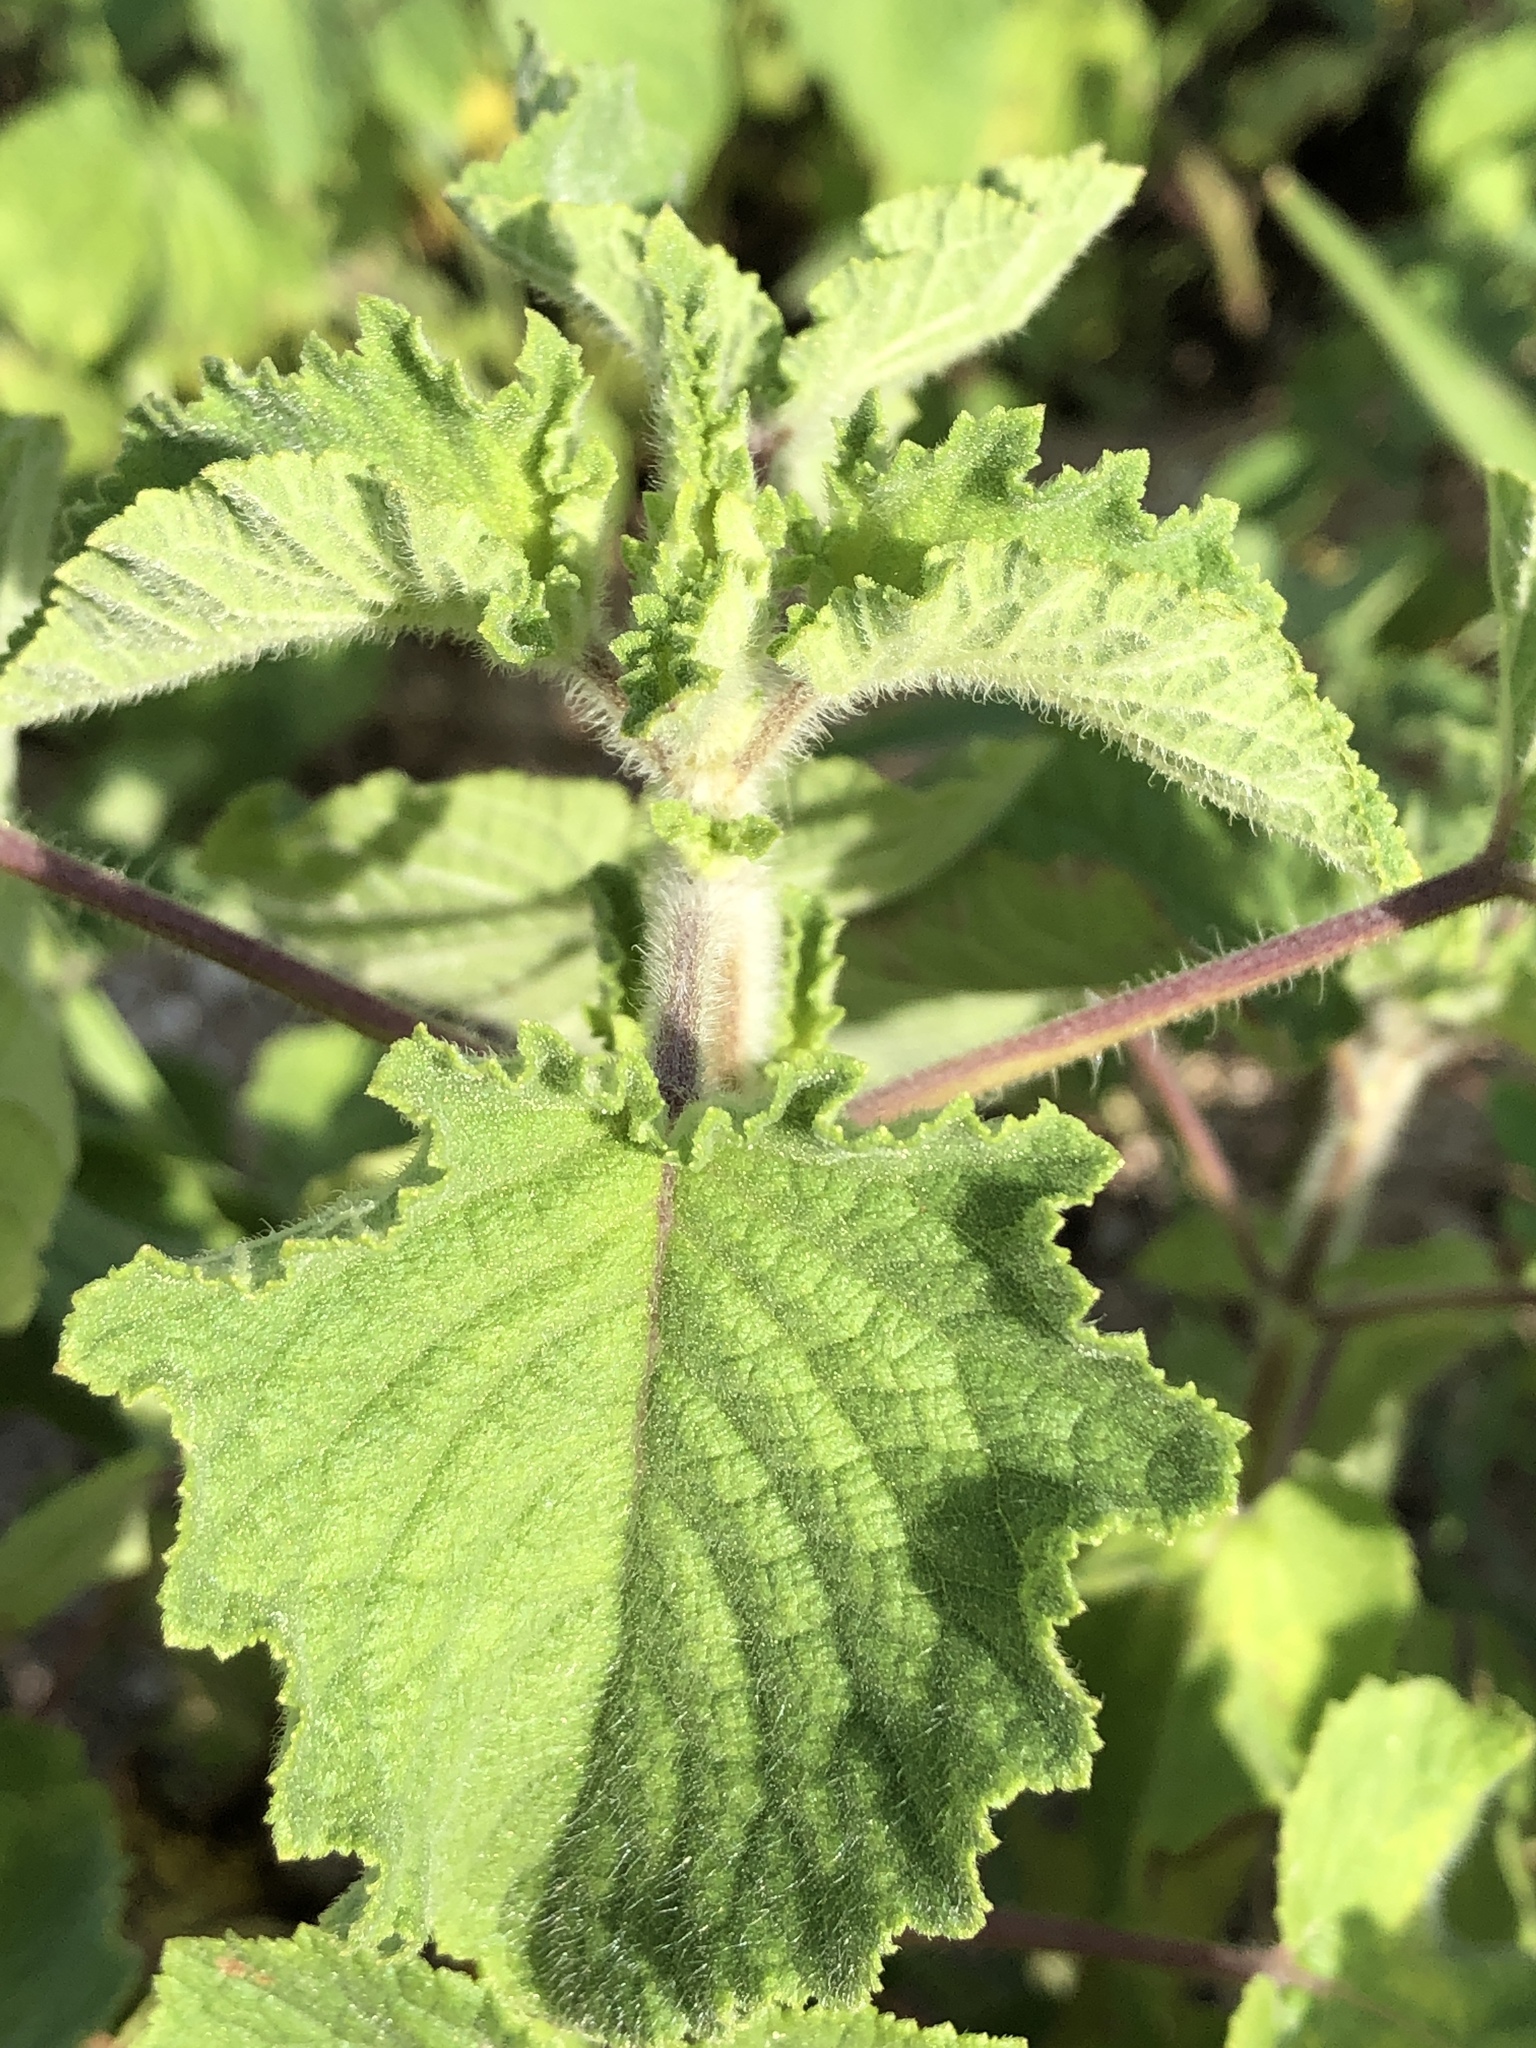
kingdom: Plantae
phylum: Tracheophyta
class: Magnoliopsida
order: Lamiales
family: Lamiaceae
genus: Mesosphaerum
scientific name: Mesosphaerum suaveolens
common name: Pignut
